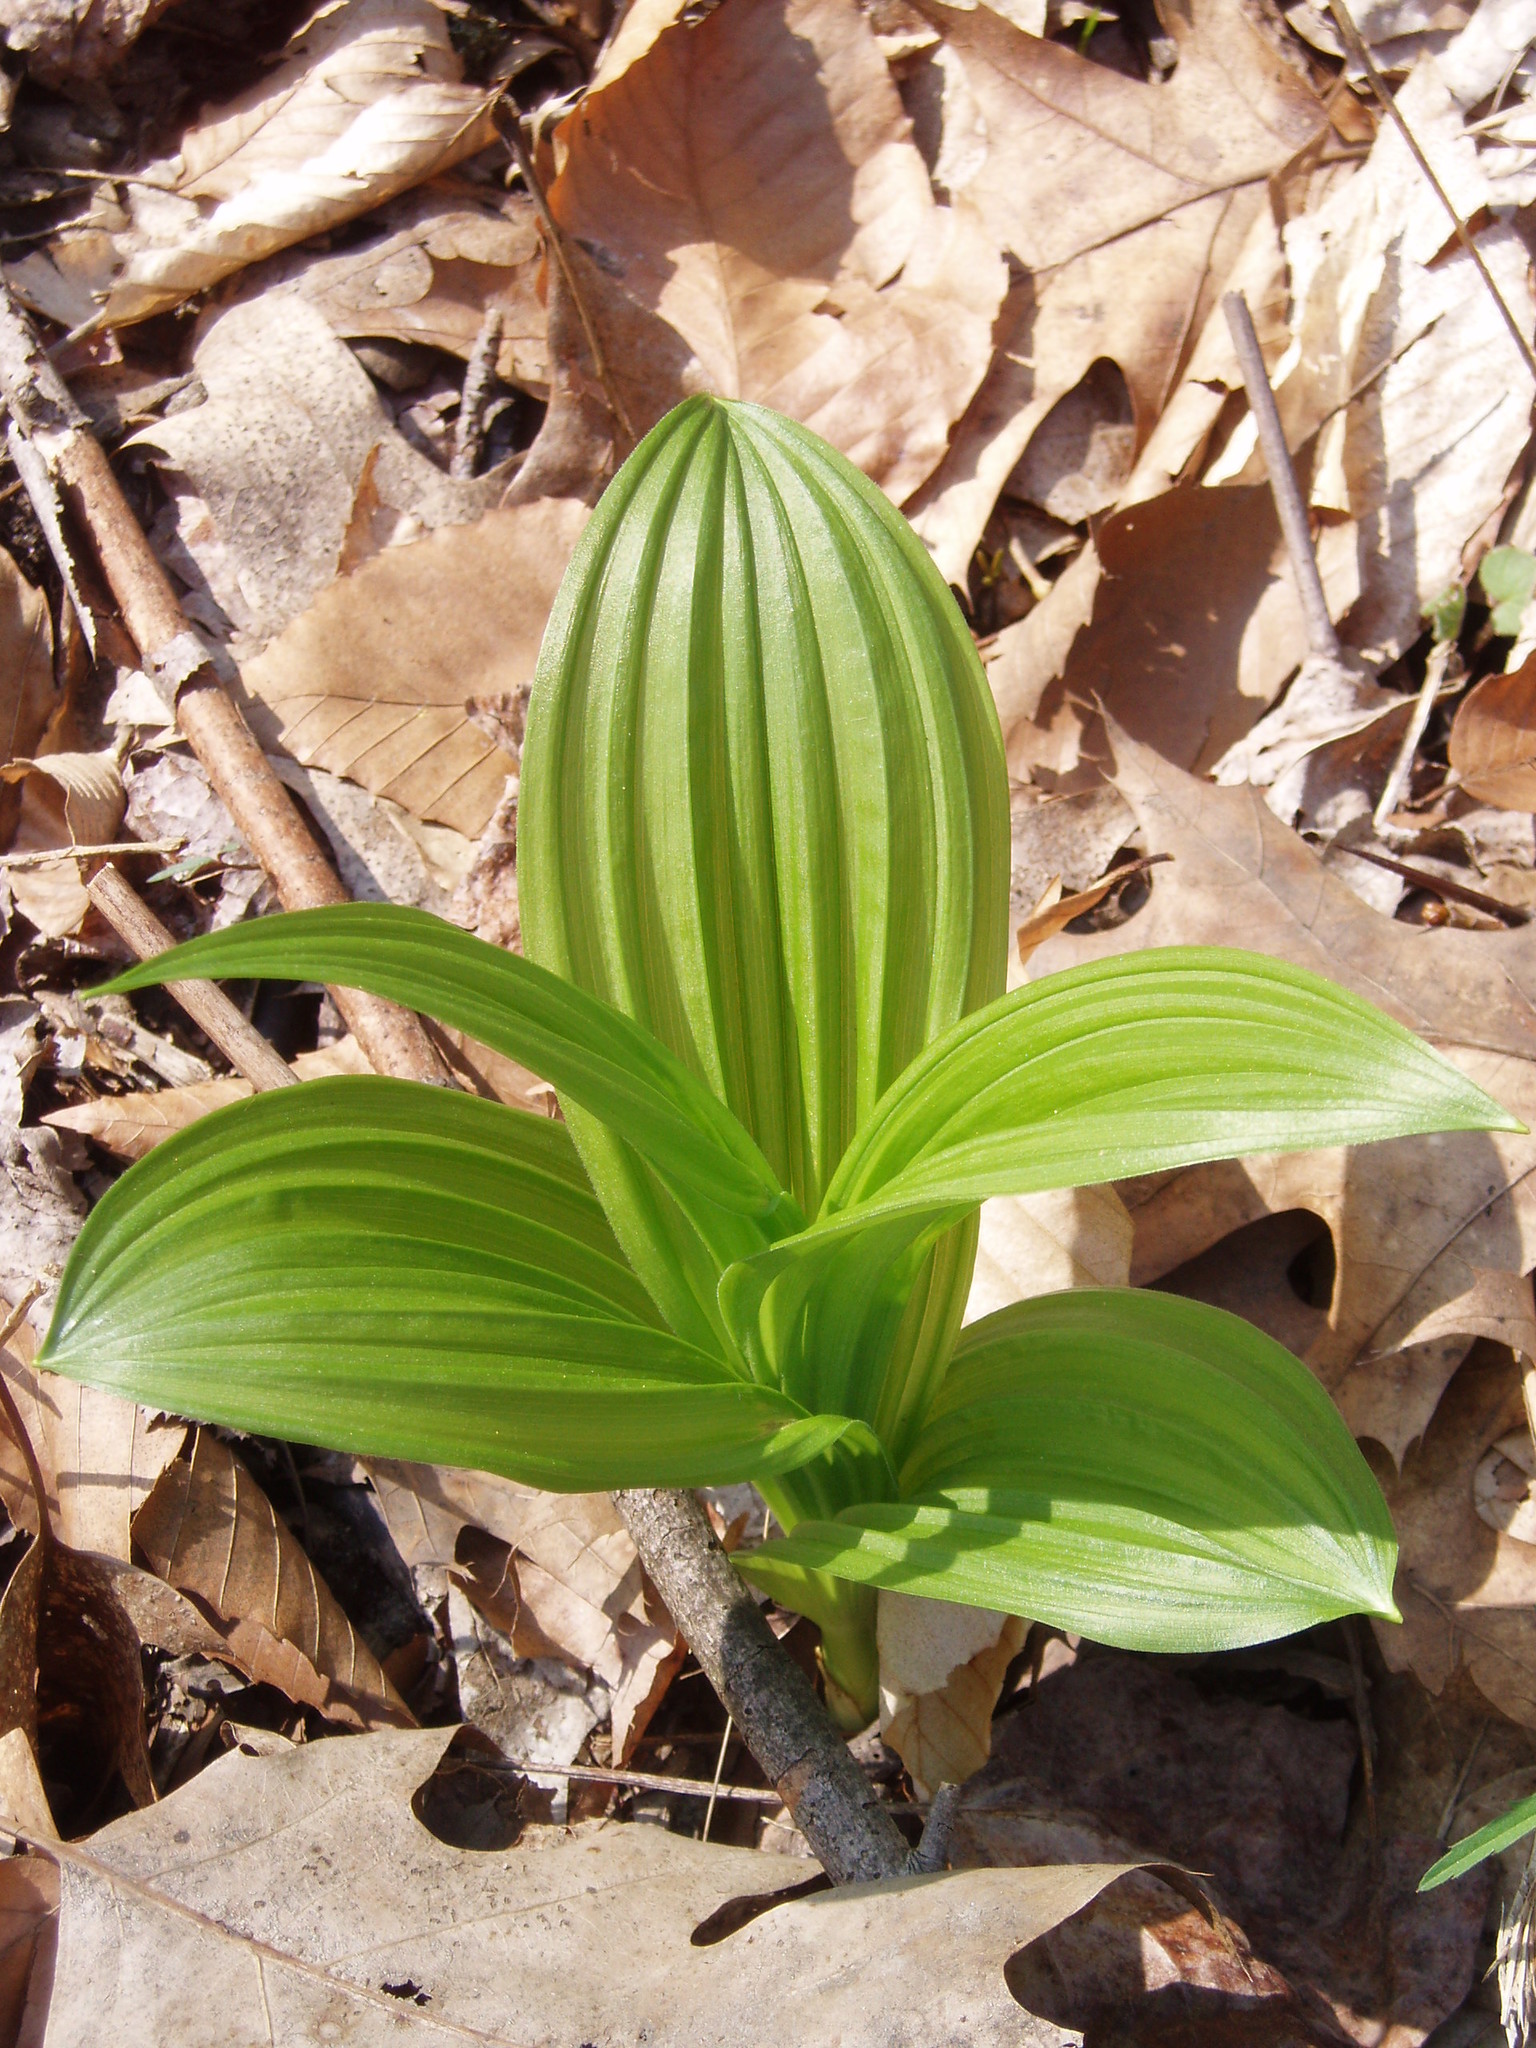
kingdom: Plantae
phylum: Tracheophyta
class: Liliopsida
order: Liliales
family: Melanthiaceae
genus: Veratrum
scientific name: Veratrum viride
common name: American false hellebore
